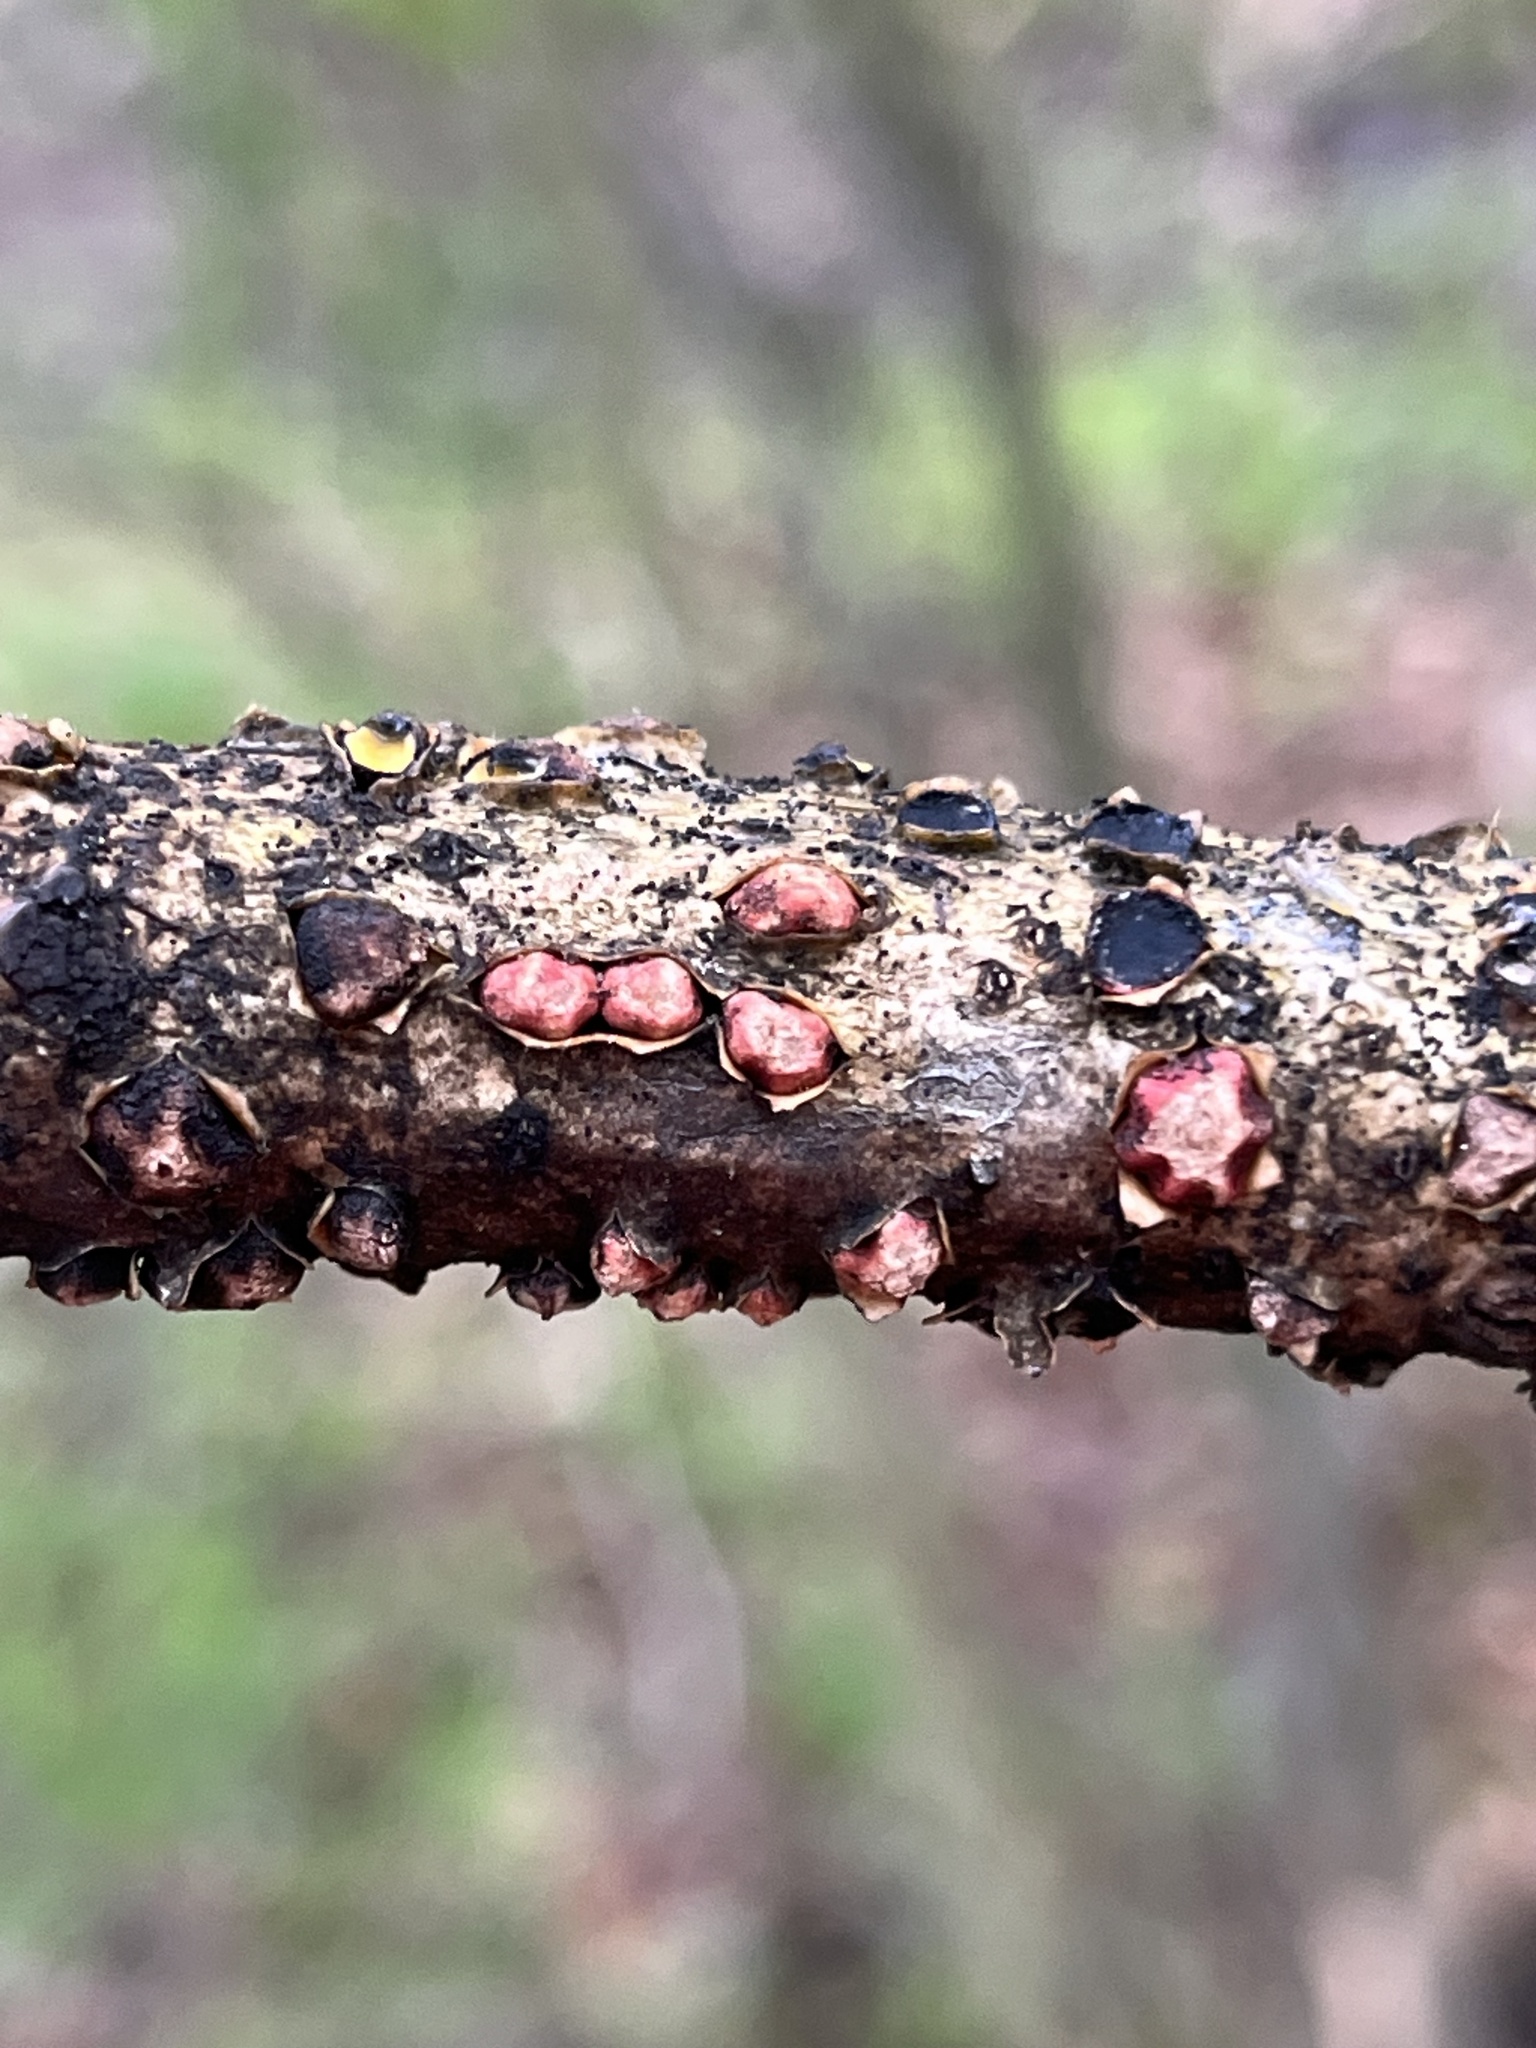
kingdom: Fungi
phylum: Ascomycota
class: Leotiomycetes
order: Rhytismatales
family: Rhytismataceae
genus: Coccomyces
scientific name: Coccomyces triangularis
